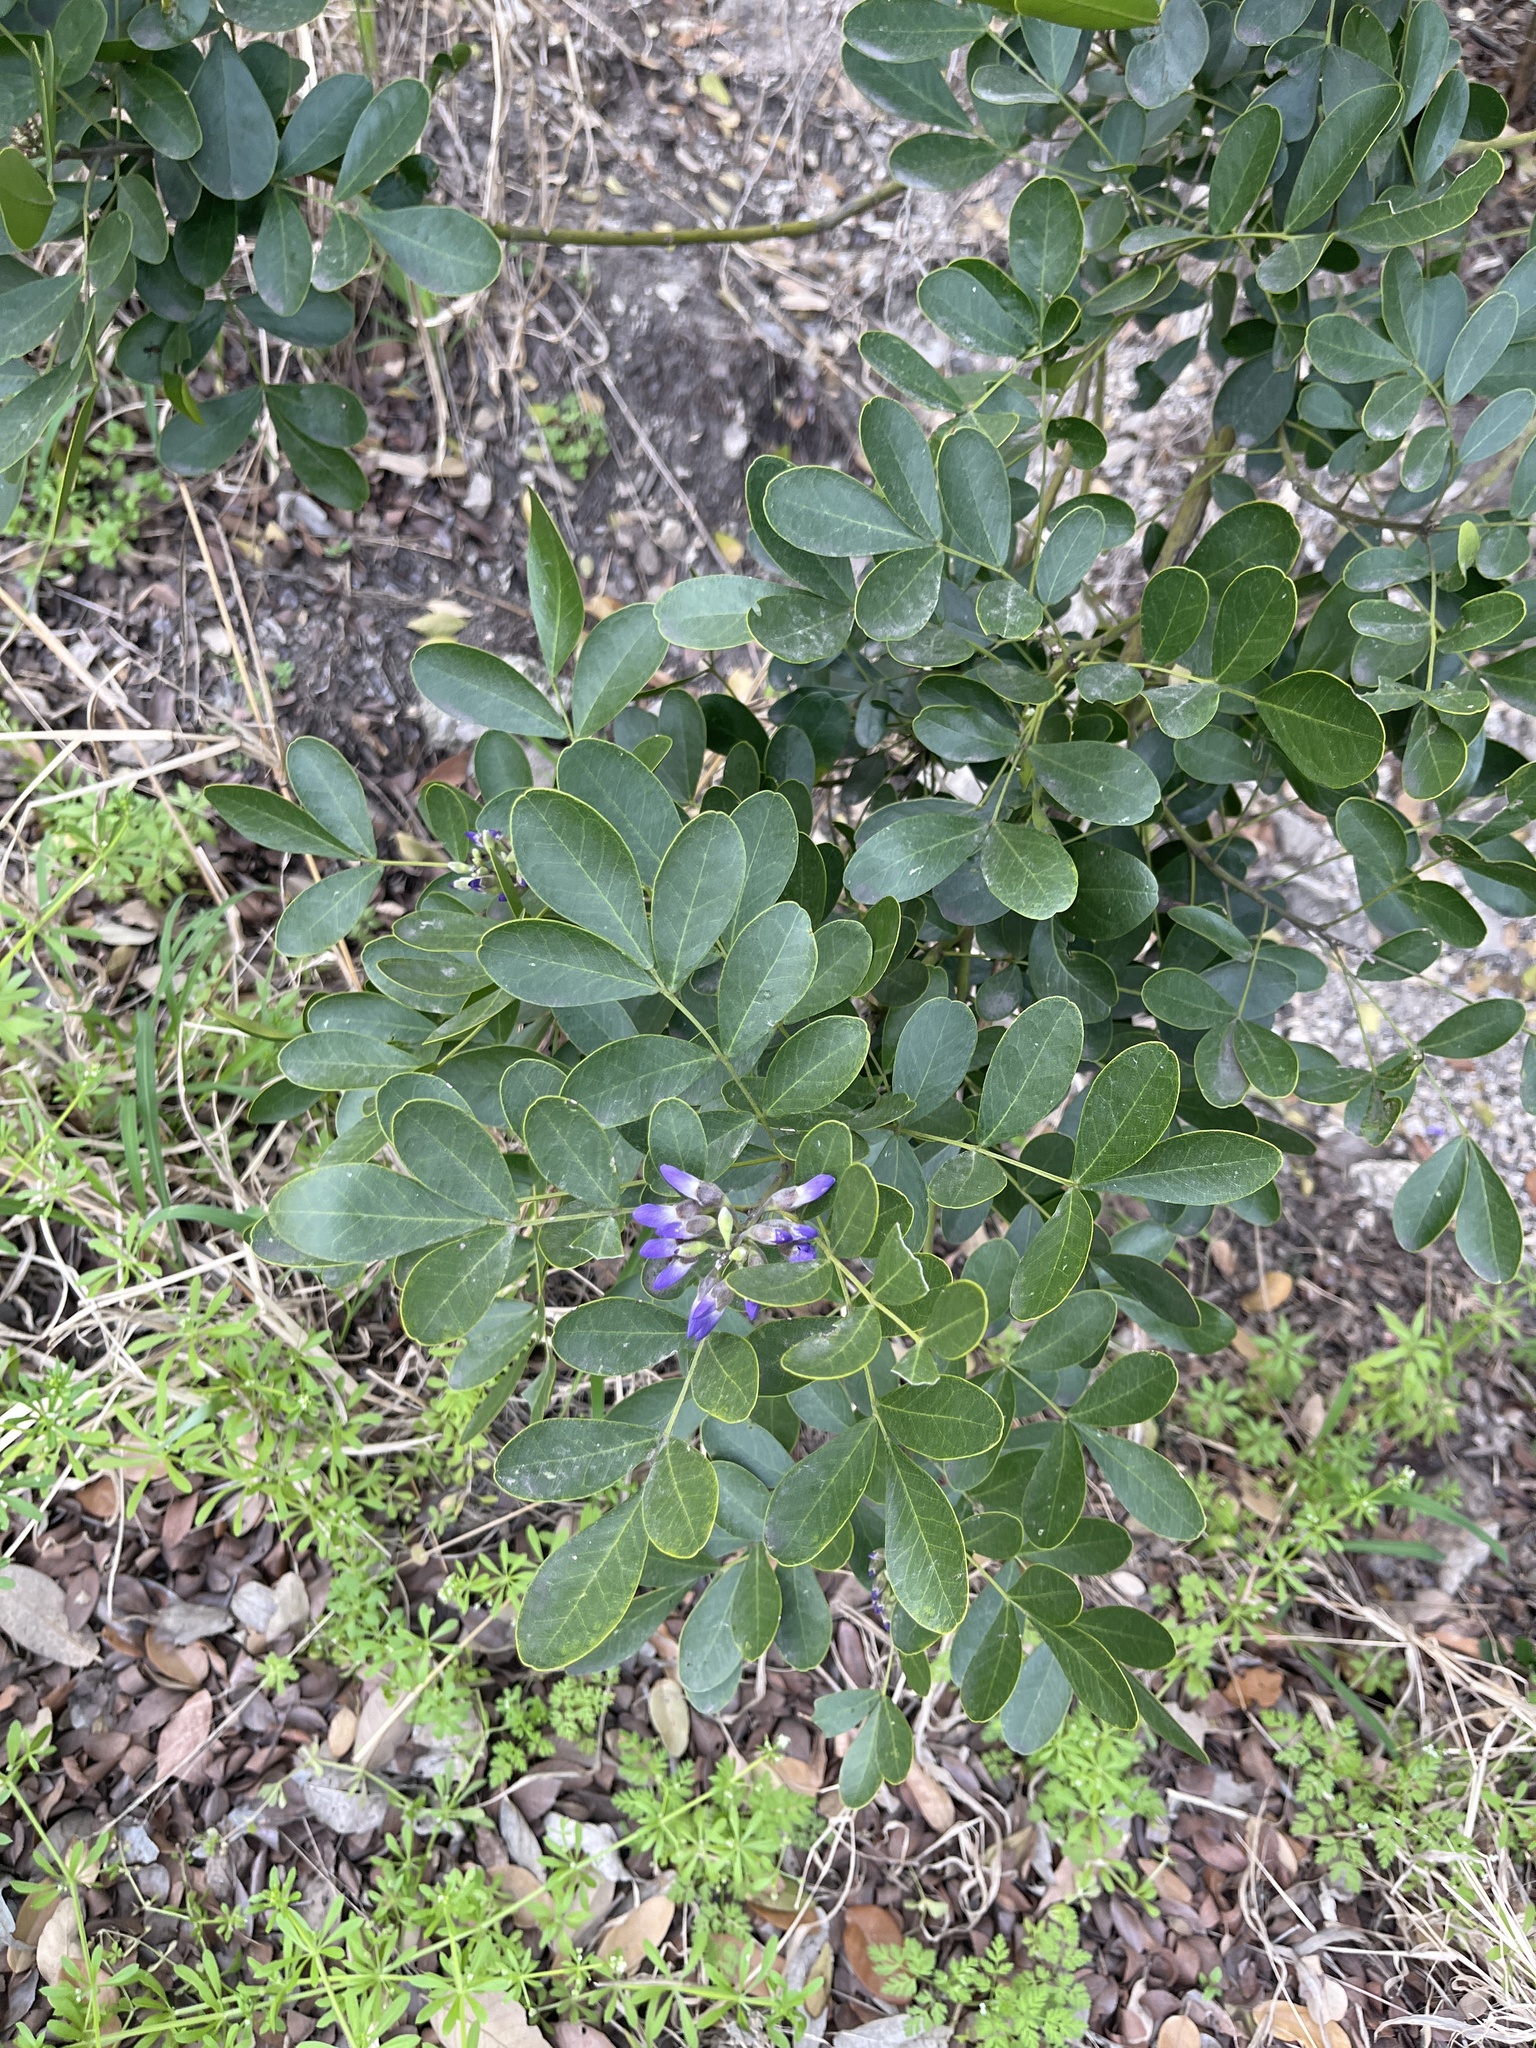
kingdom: Plantae
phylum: Tracheophyta
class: Magnoliopsida
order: Fabales
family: Fabaceae
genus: Dermatophyllum
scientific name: Dermatophyllum secundiflorum
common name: Texas-mountain-laurel
